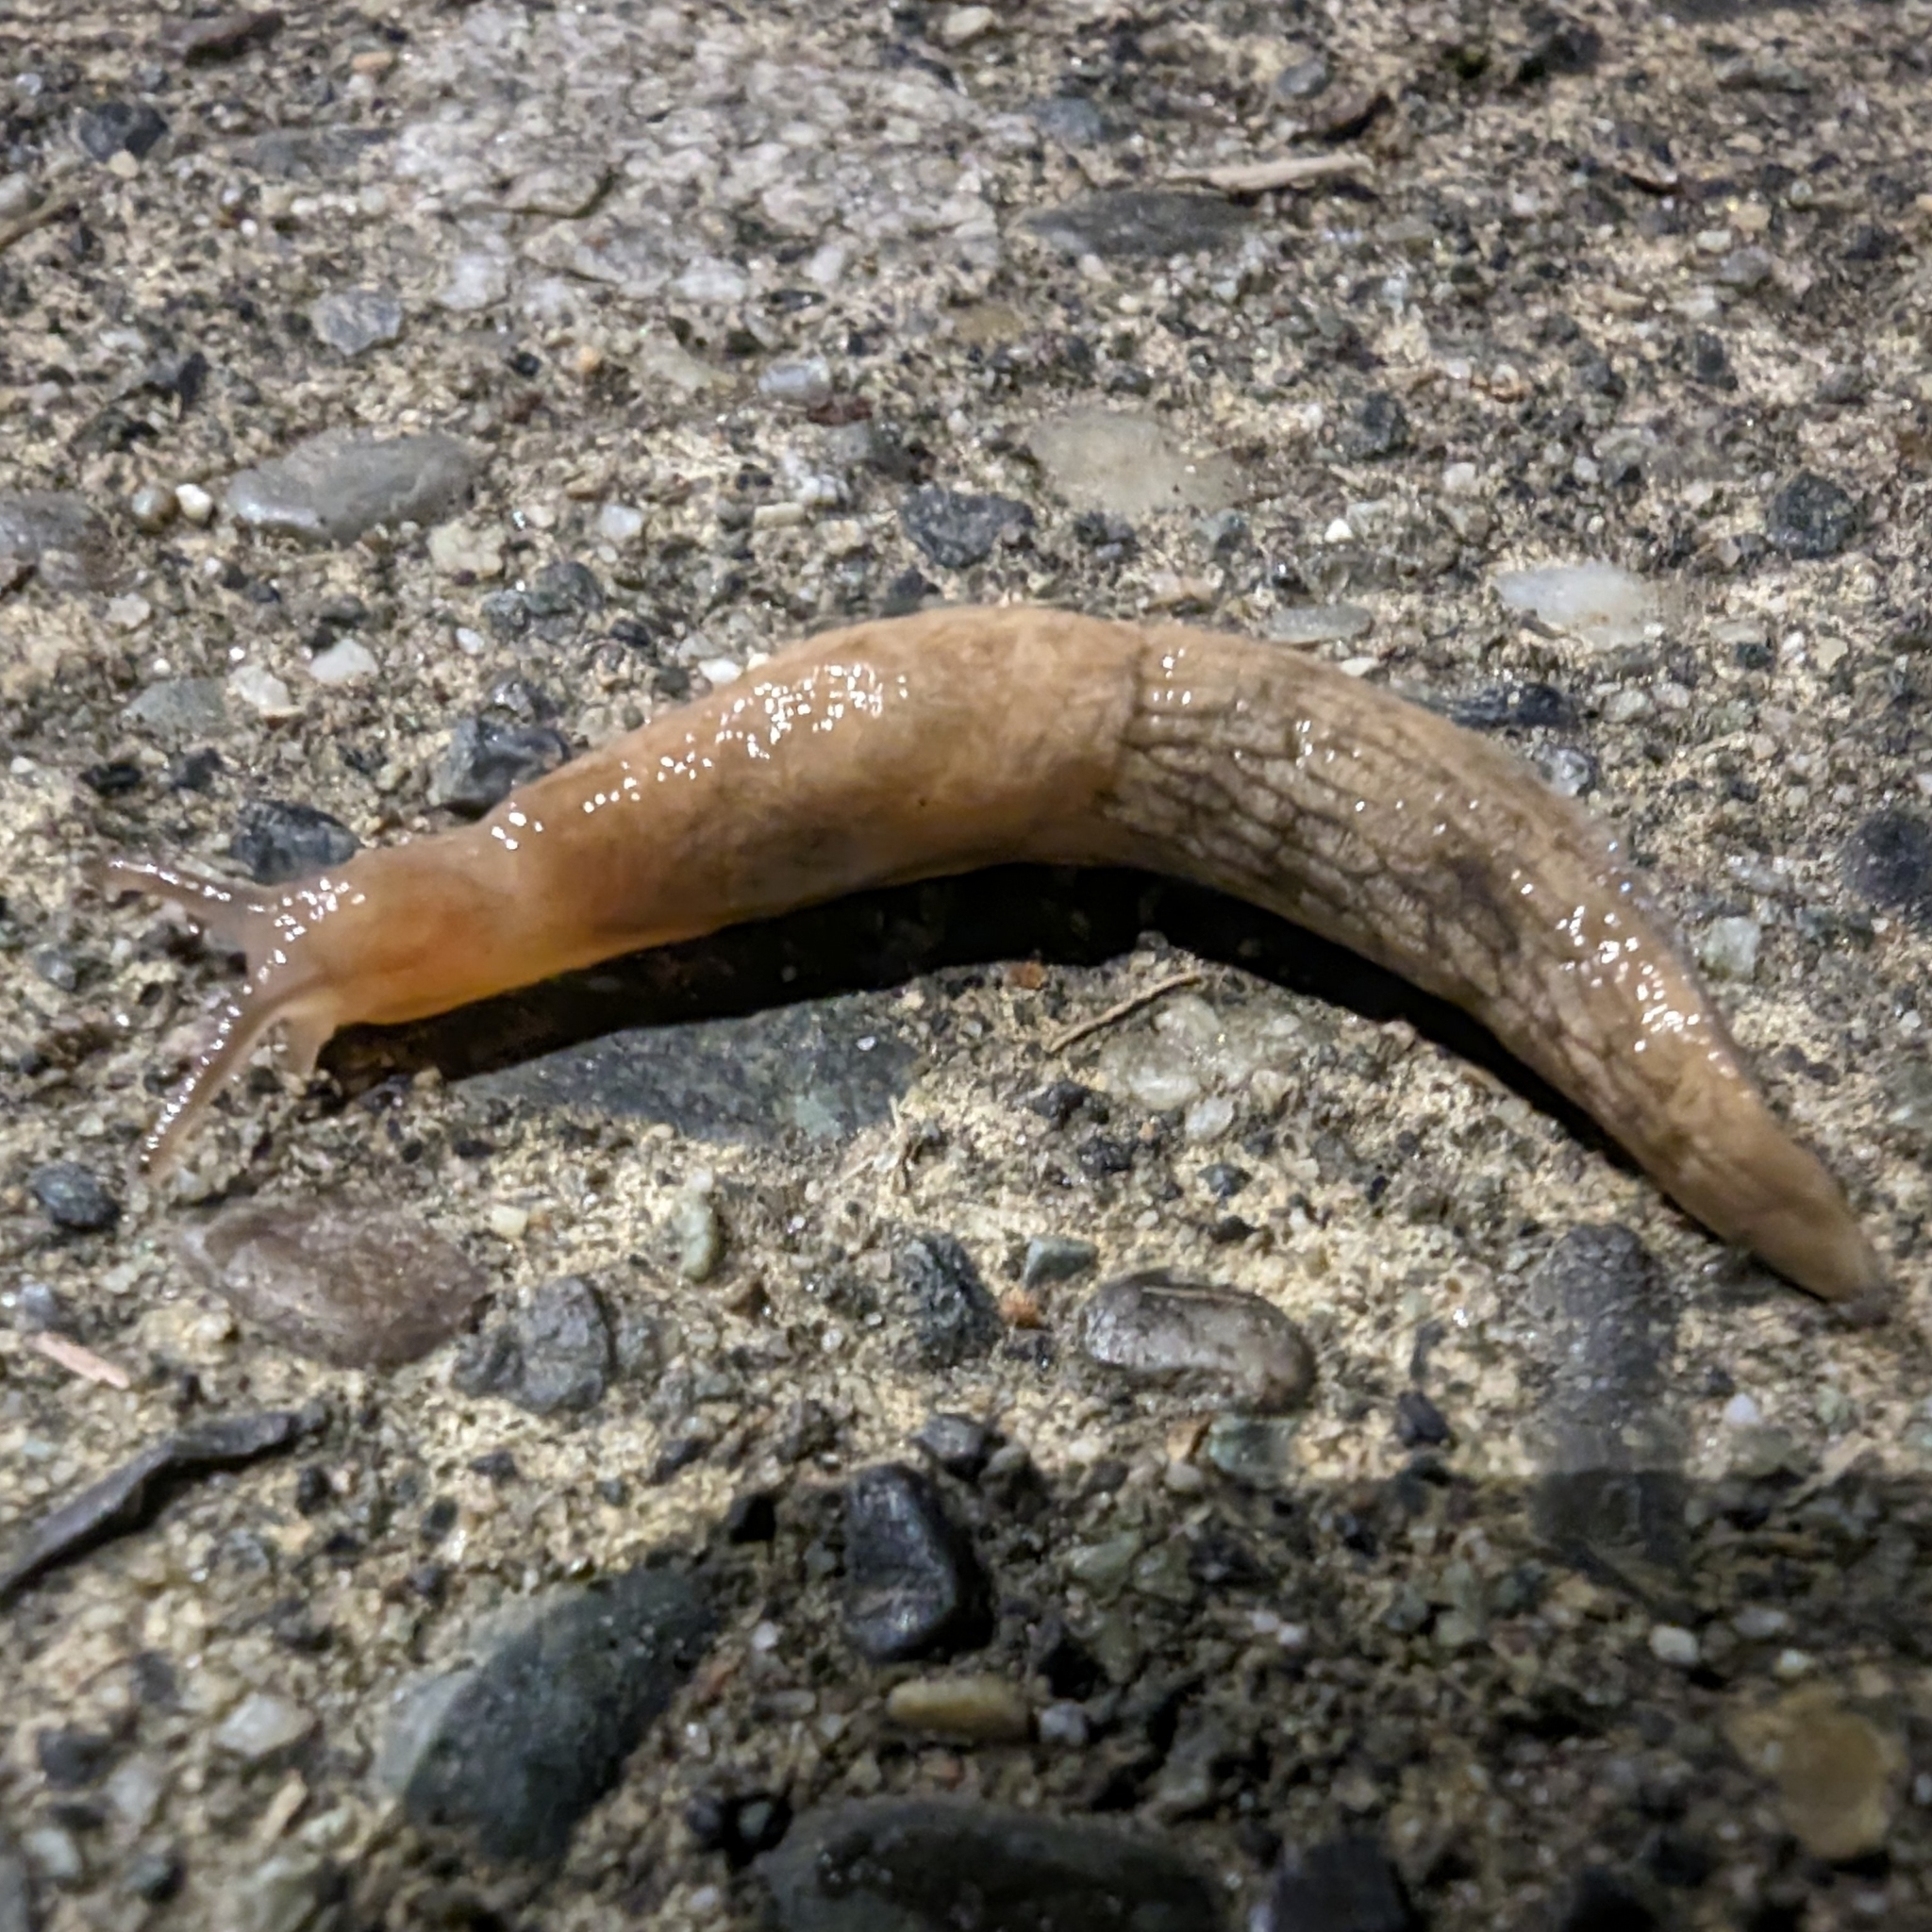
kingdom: Animalia
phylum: Mollusca
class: Gastropoda
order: Stylommatophora
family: Agriolimacidae
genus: Deroceras
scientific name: Deroceras reticulatum
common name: Gray field slug
